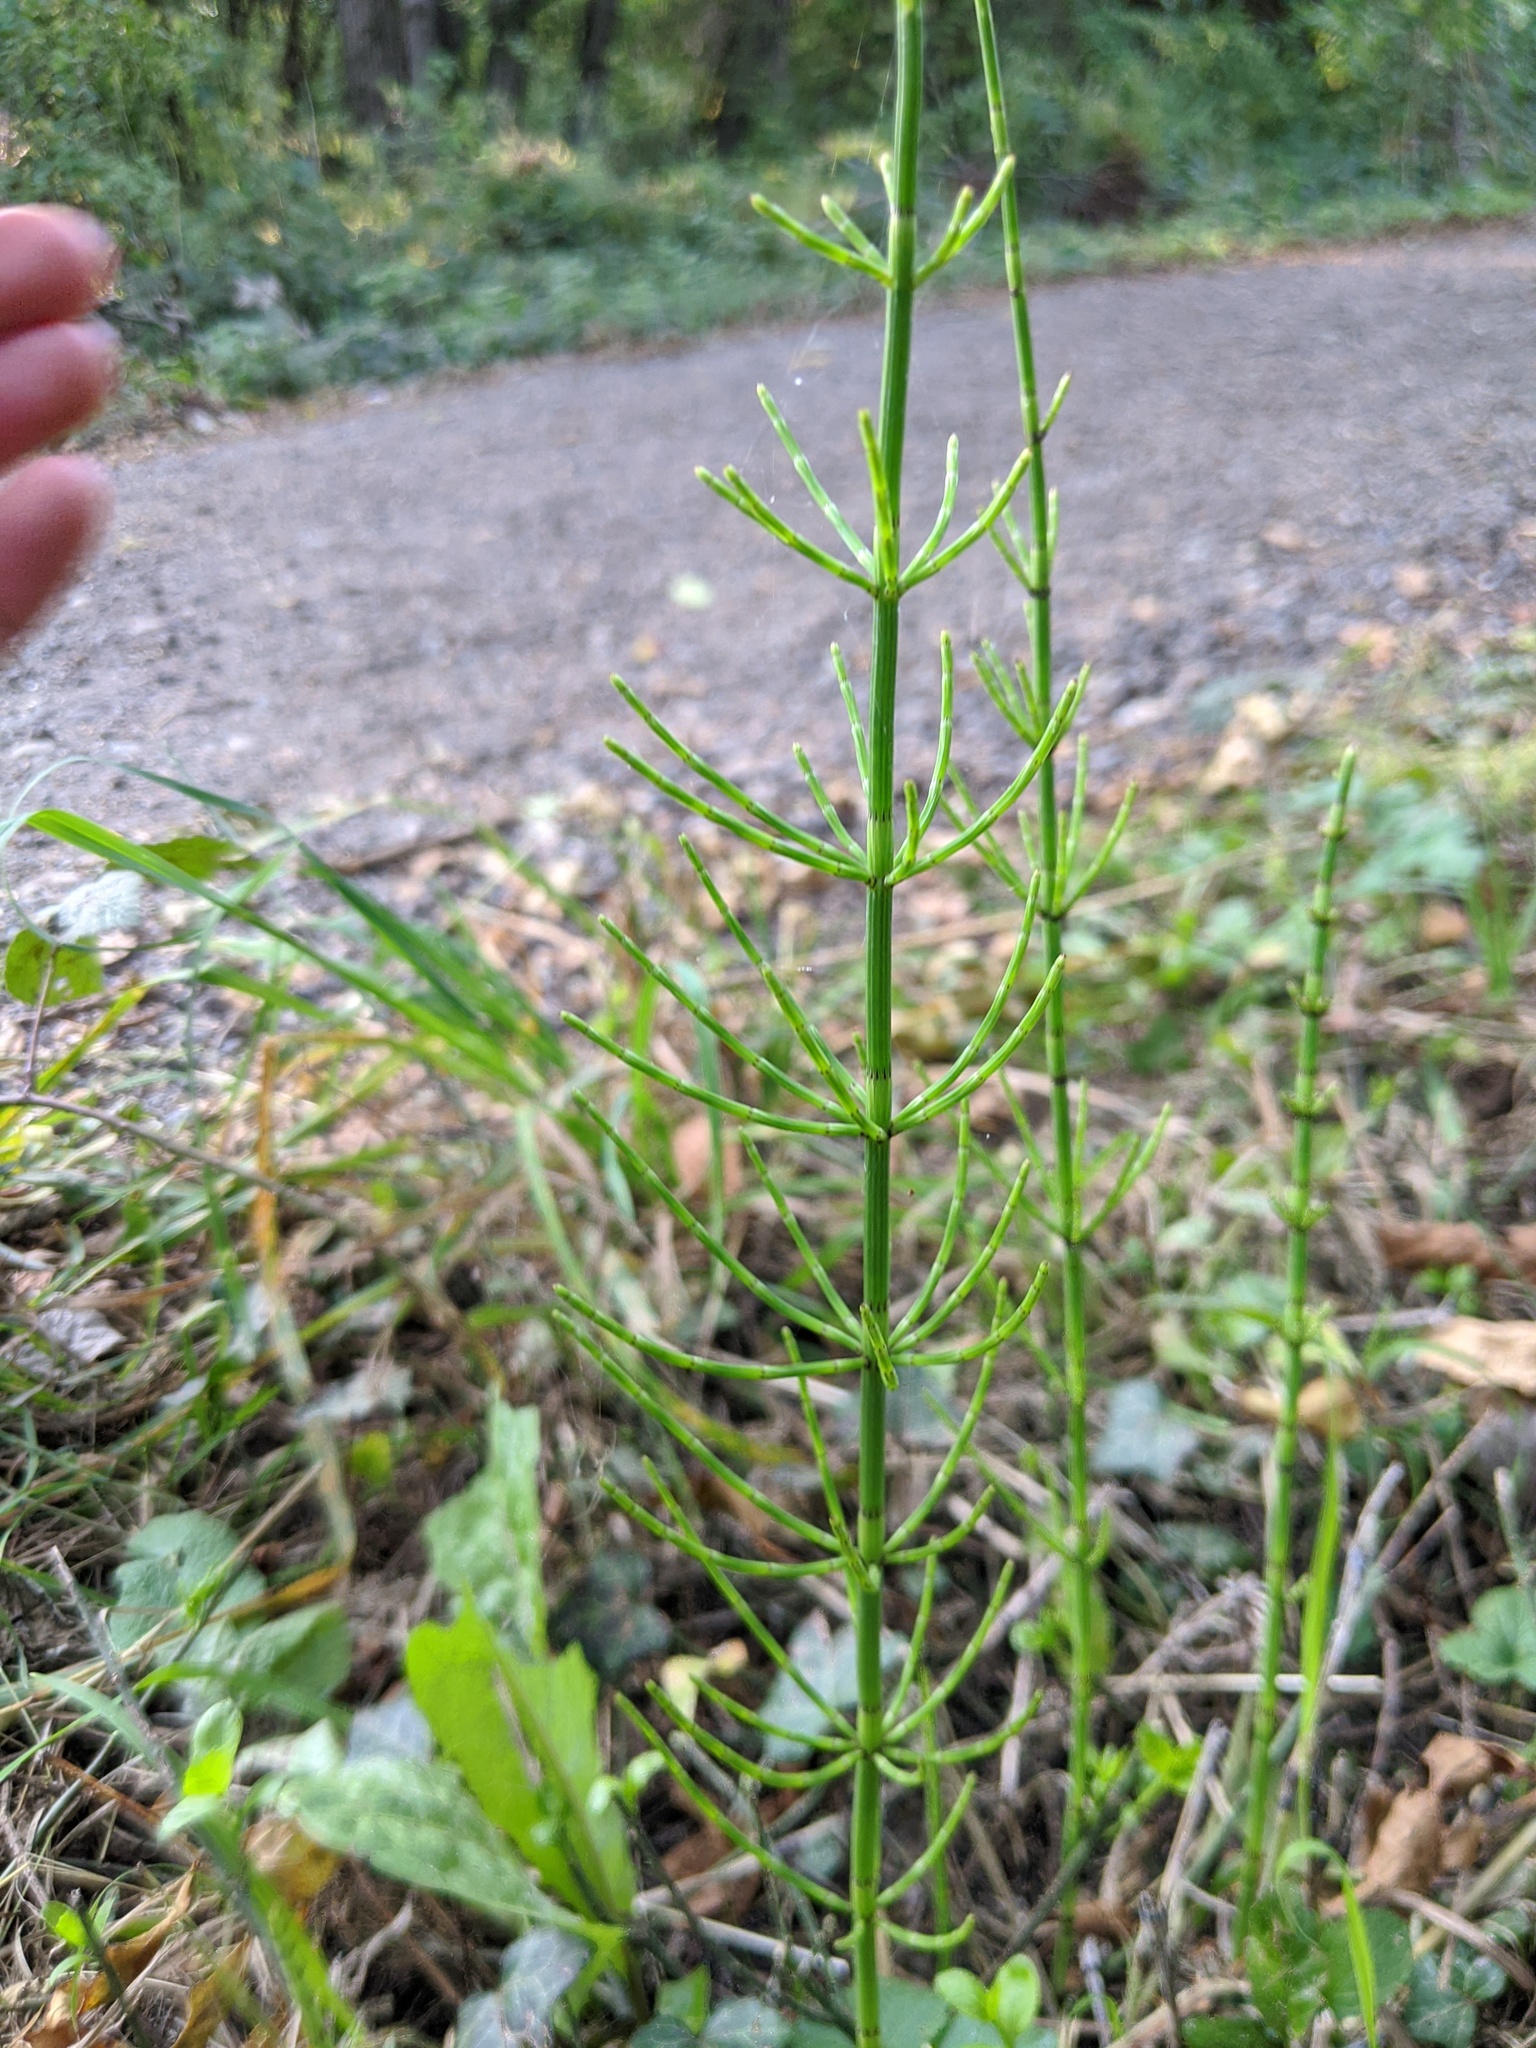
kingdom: Plantae
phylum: Tracheophyta
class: Polypodiopsida
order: Equisetales
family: Equisetaceae
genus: Equisetum
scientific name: Equisetum palustre
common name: Marsh horsetail
